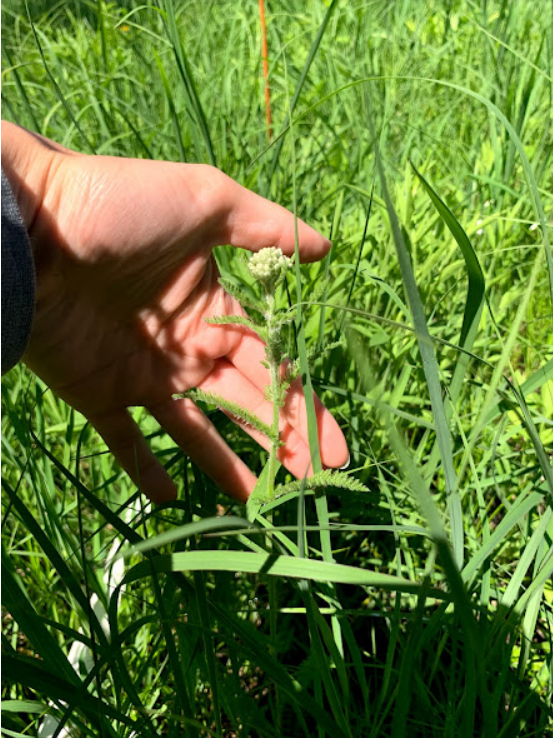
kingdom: Plantae
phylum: Tracheophyta
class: Magnoliopsida
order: Asterales
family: Asteraceae
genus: Achillea
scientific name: Achillea millefolium
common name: Yarrow
